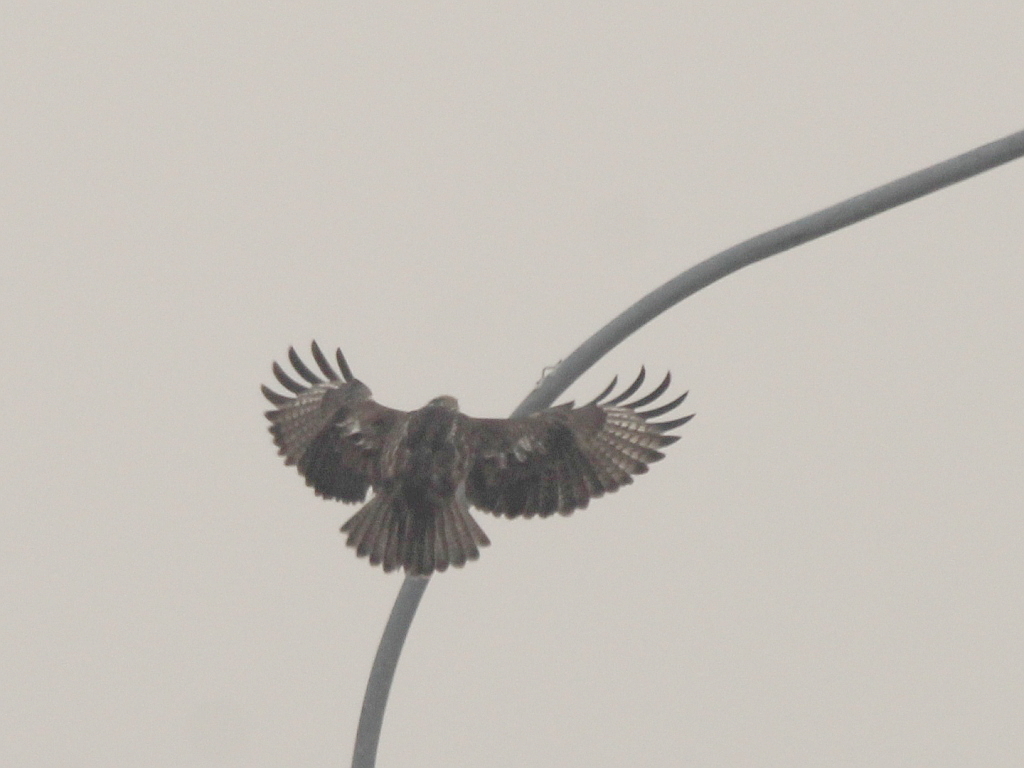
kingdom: Animalia
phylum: Chordata
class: Aves
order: Accipitriformes
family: Accipitridae
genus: Buteo
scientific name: Buteo japonicus
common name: Eastern buzzard
